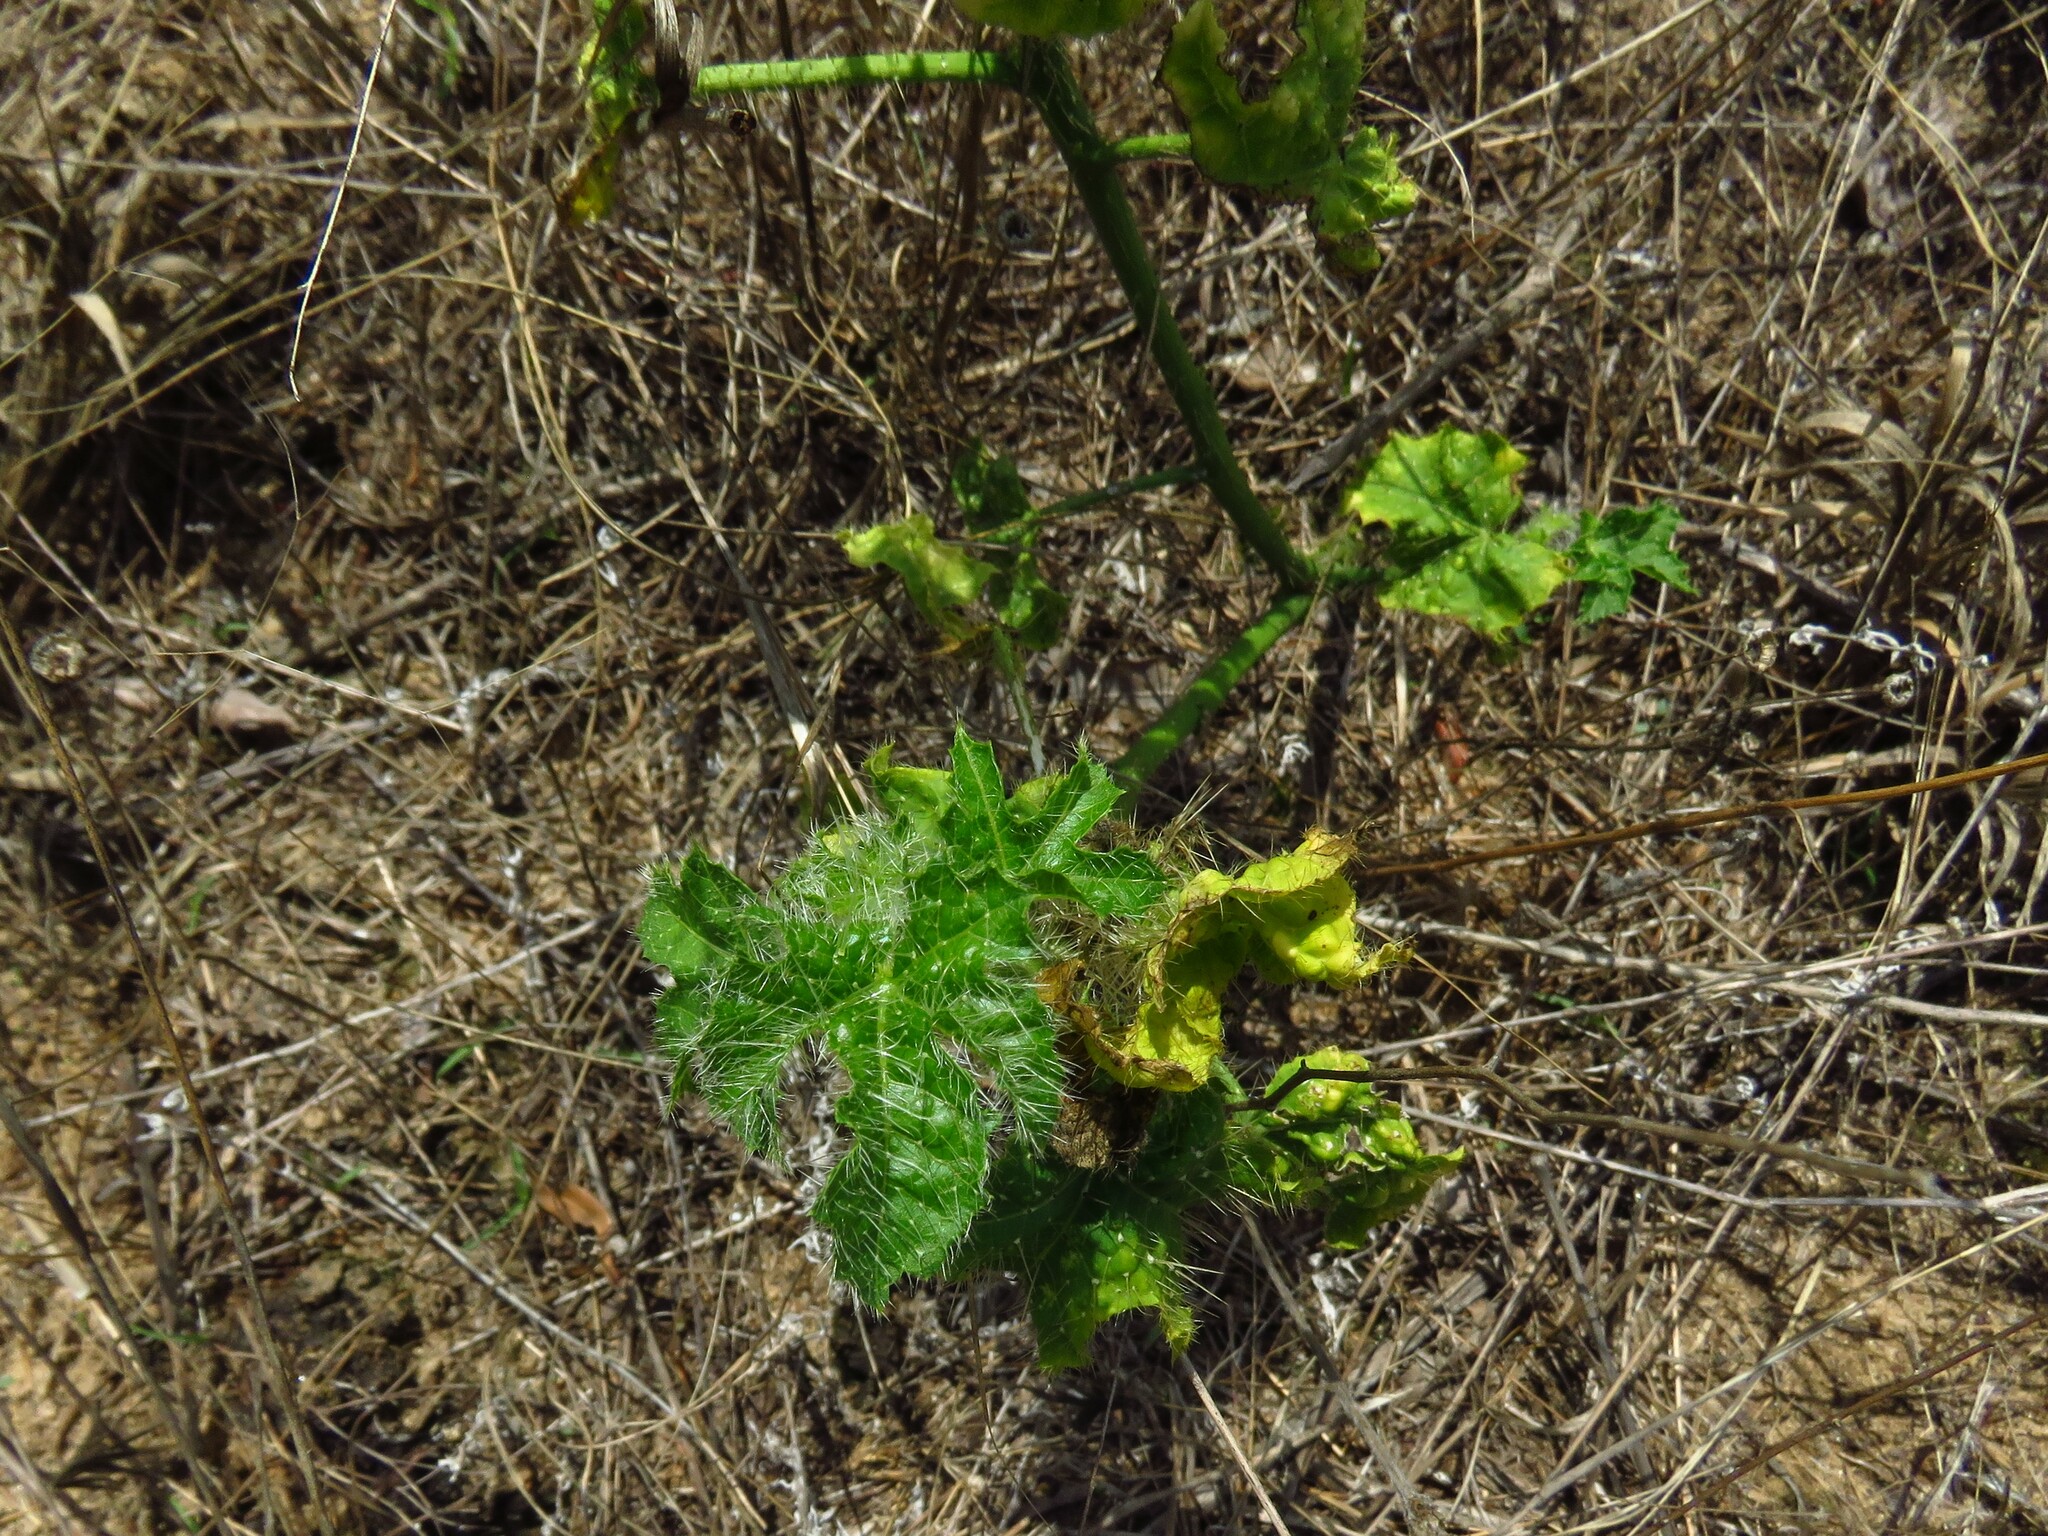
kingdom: Plantae
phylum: Tracheophyta
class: Magnoliopsida
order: Malpighiales
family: Euphorbiaceae
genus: Cnidoscolus
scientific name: Cnidoscolus texanus
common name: Texas bull-nettle
